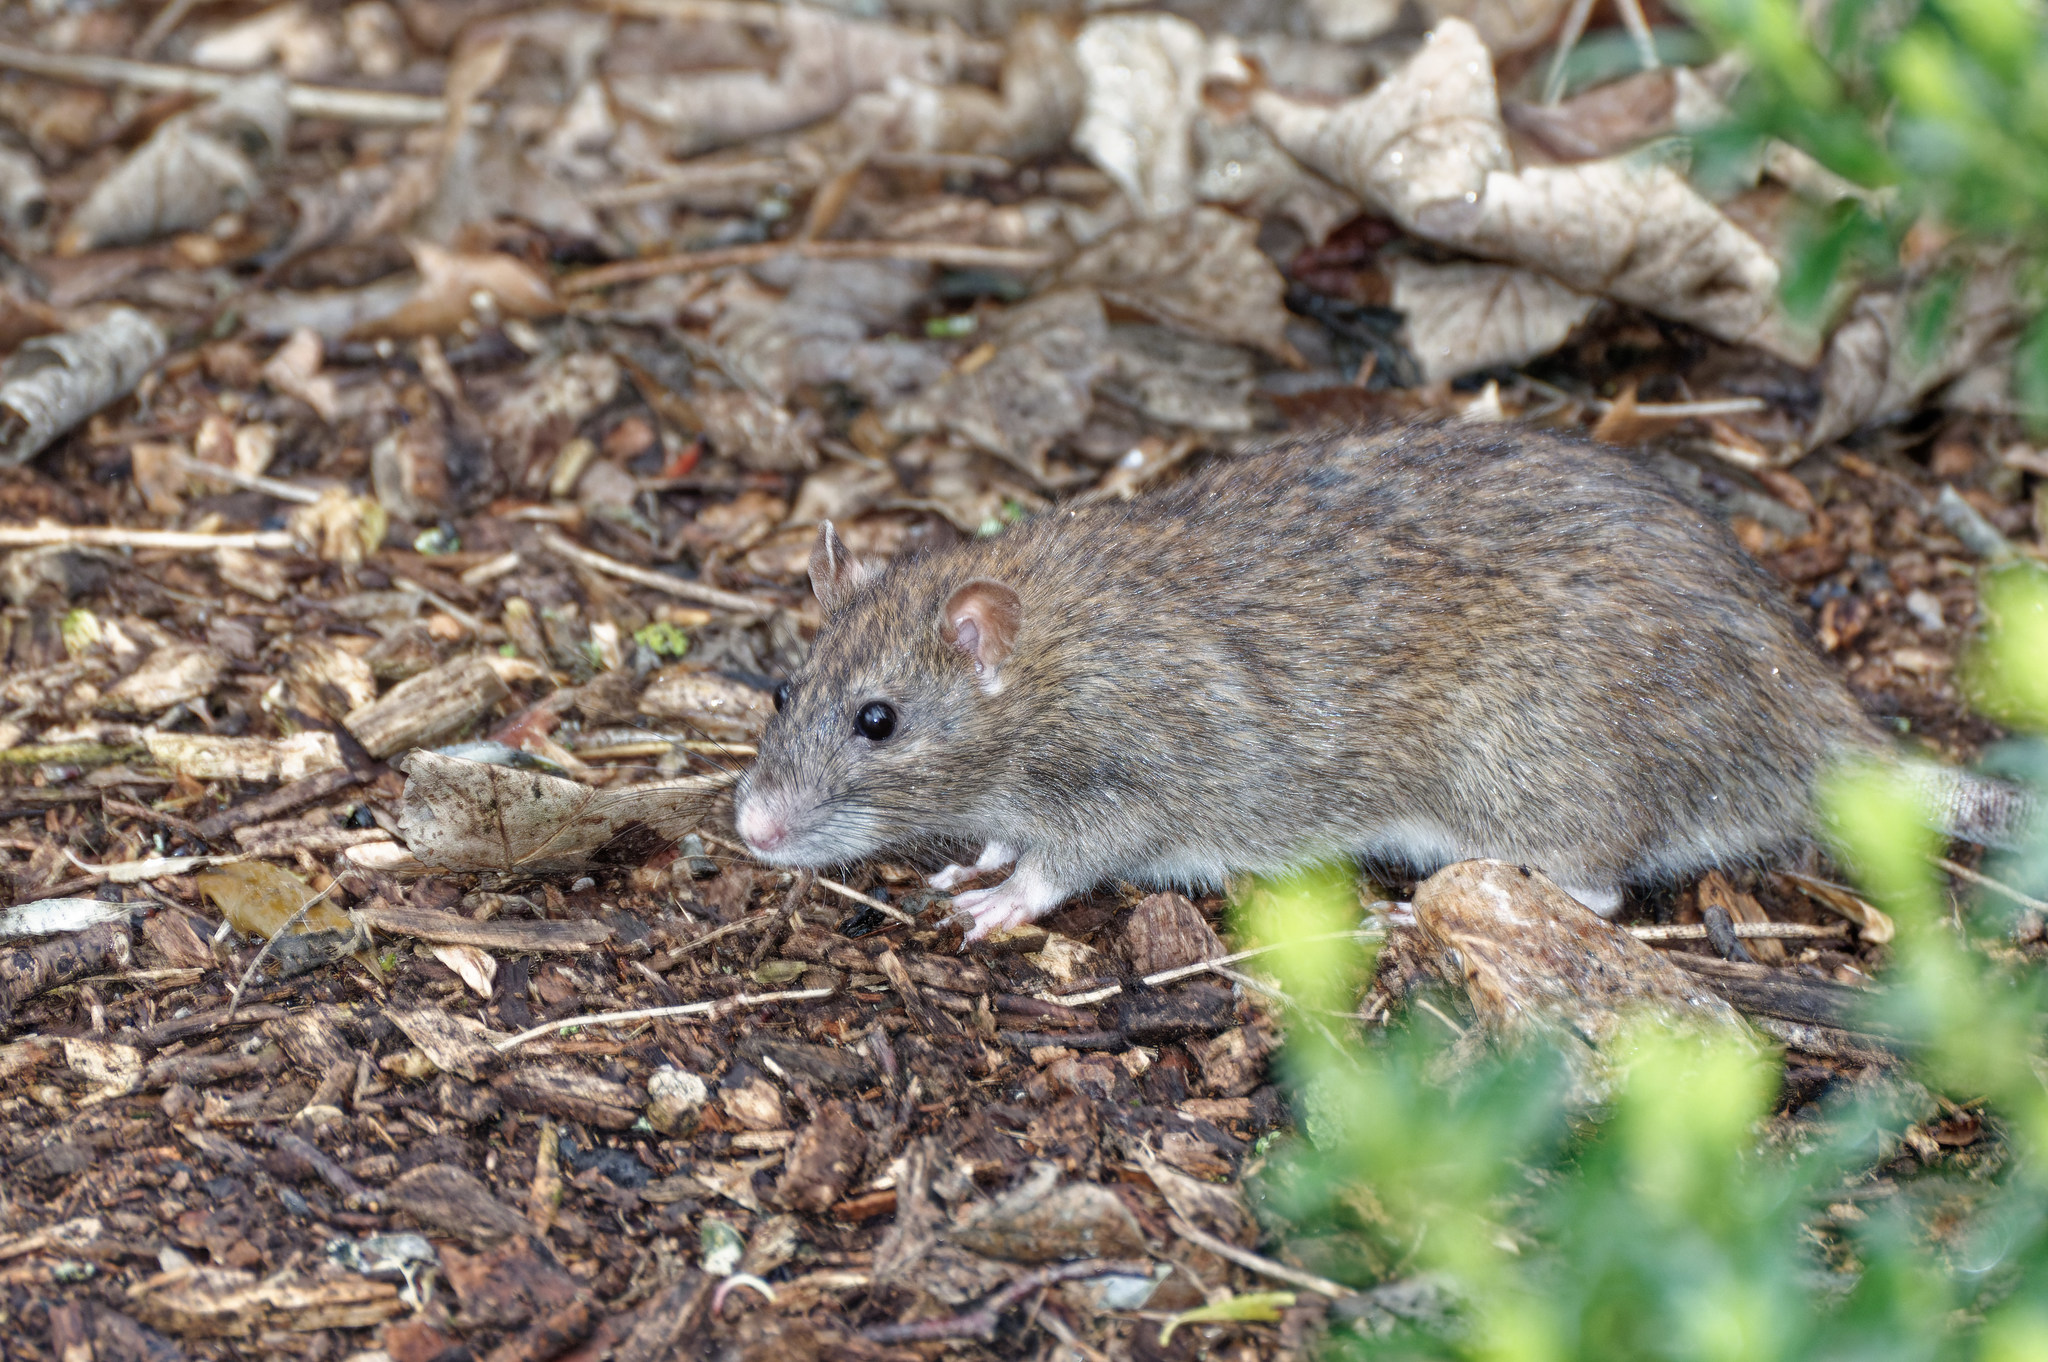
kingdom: Animalia
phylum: Chordata
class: Mammalia
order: Rodentia
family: Muridae
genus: Rattus
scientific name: Rattus norvegicus
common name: Brown rat
